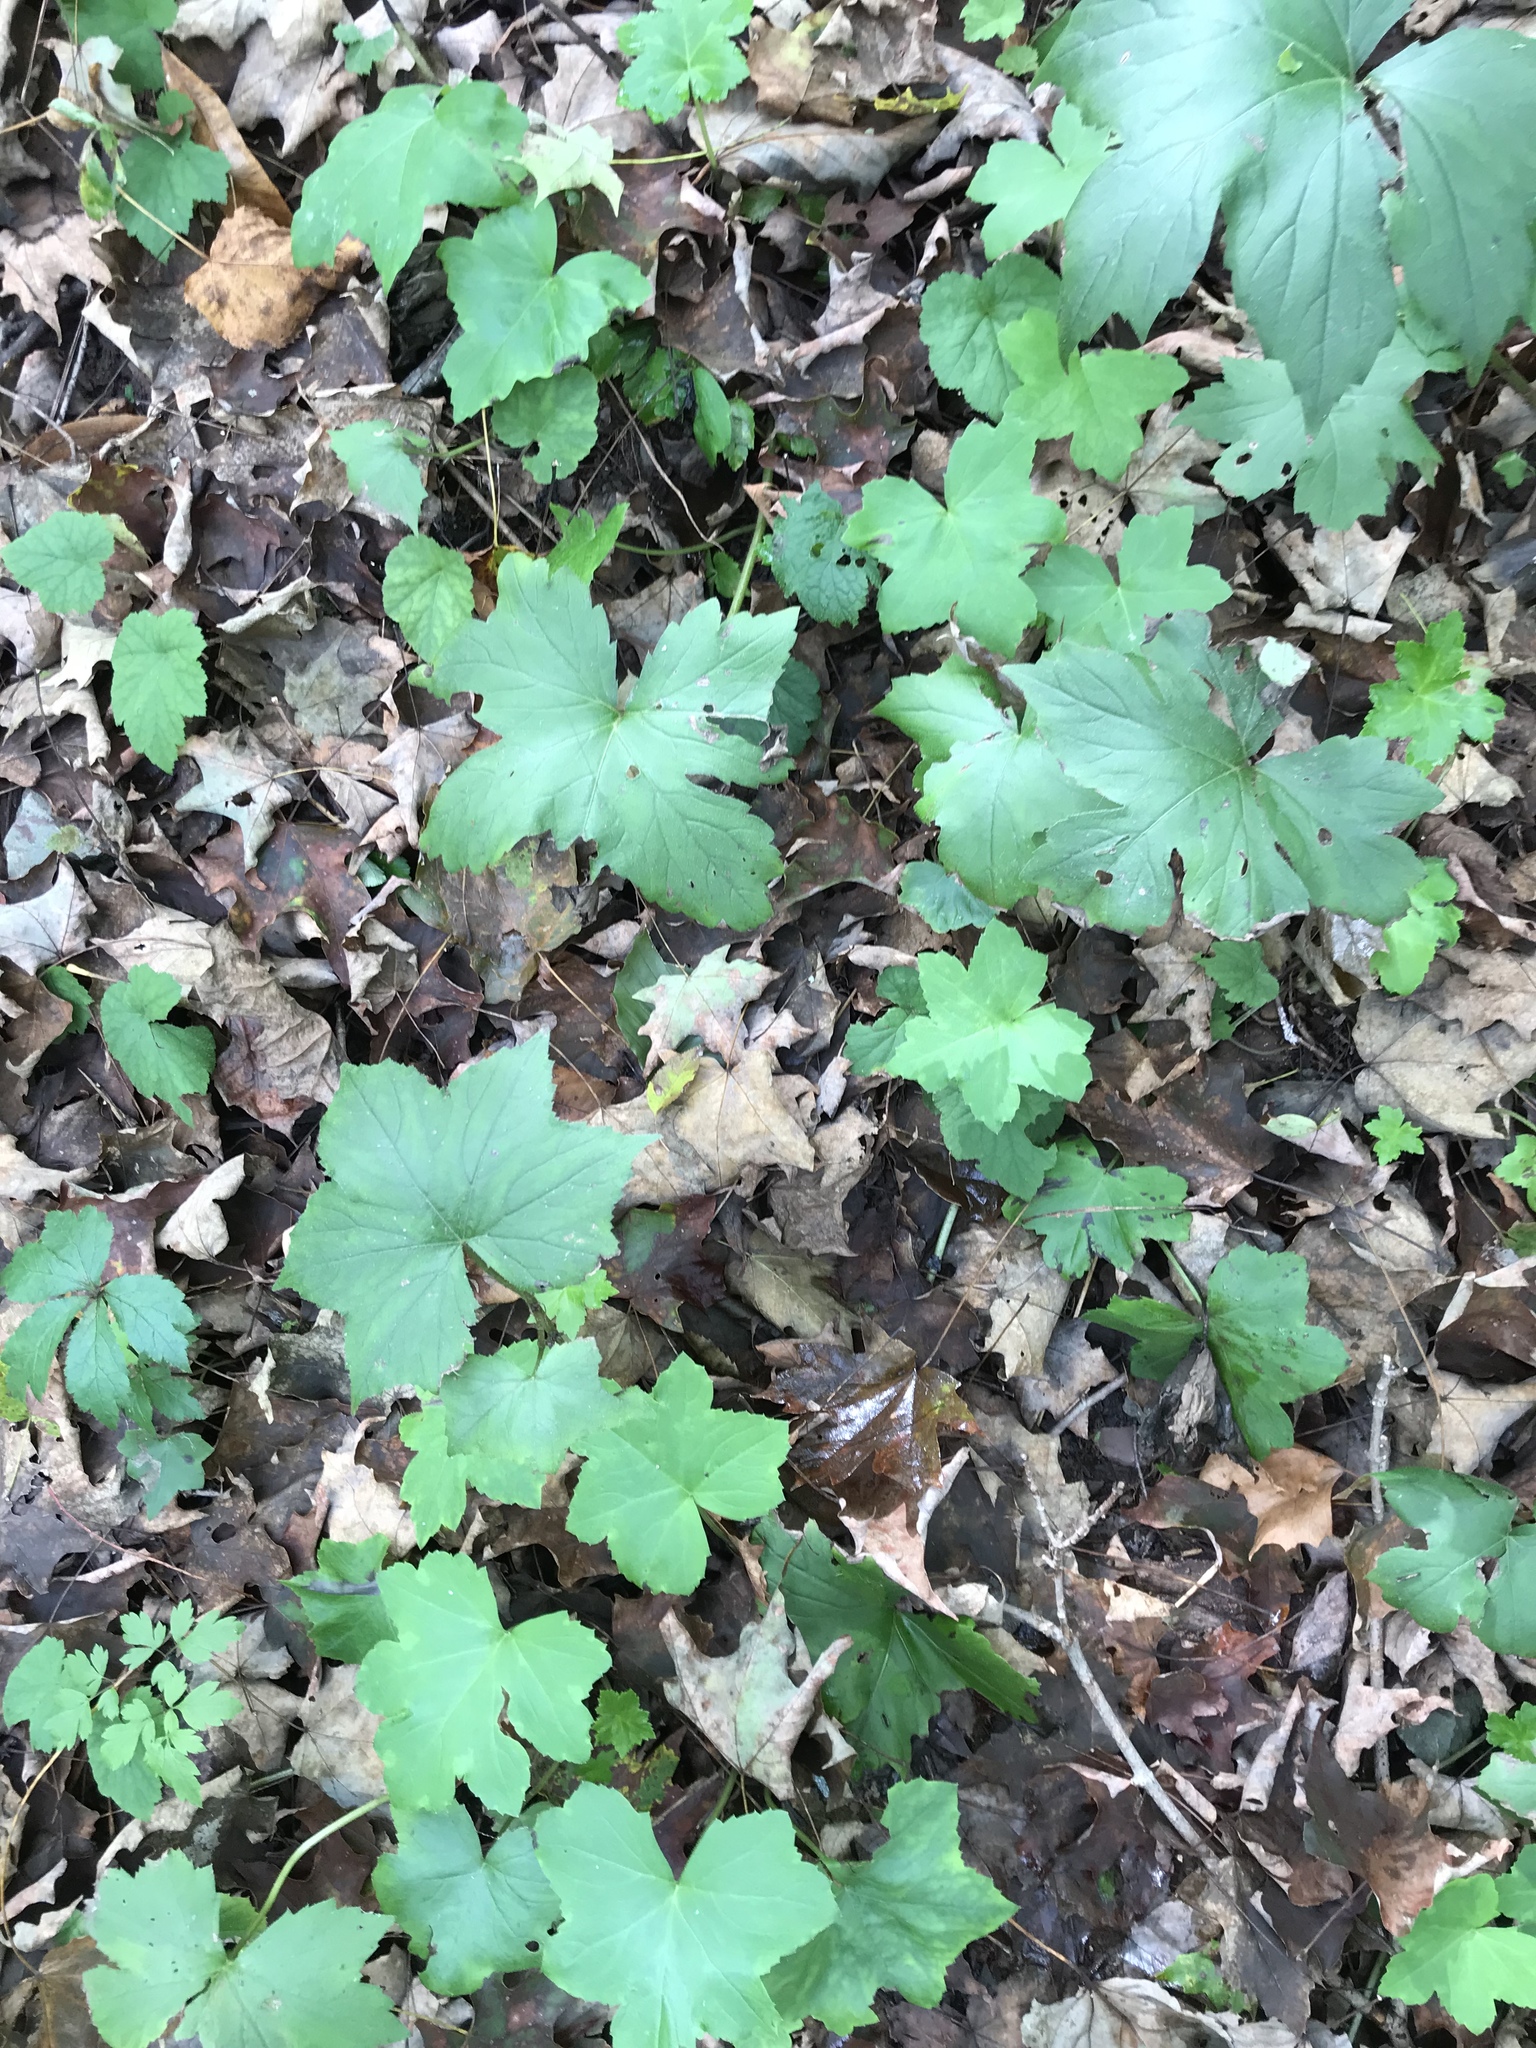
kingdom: Plantae
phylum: Tracheophyta
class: Magnoliopsida
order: Boraginales
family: Hydrophyllaceae
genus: Hydrophyllum
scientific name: Hydrophyllum canadense
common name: Canada waterleaf
